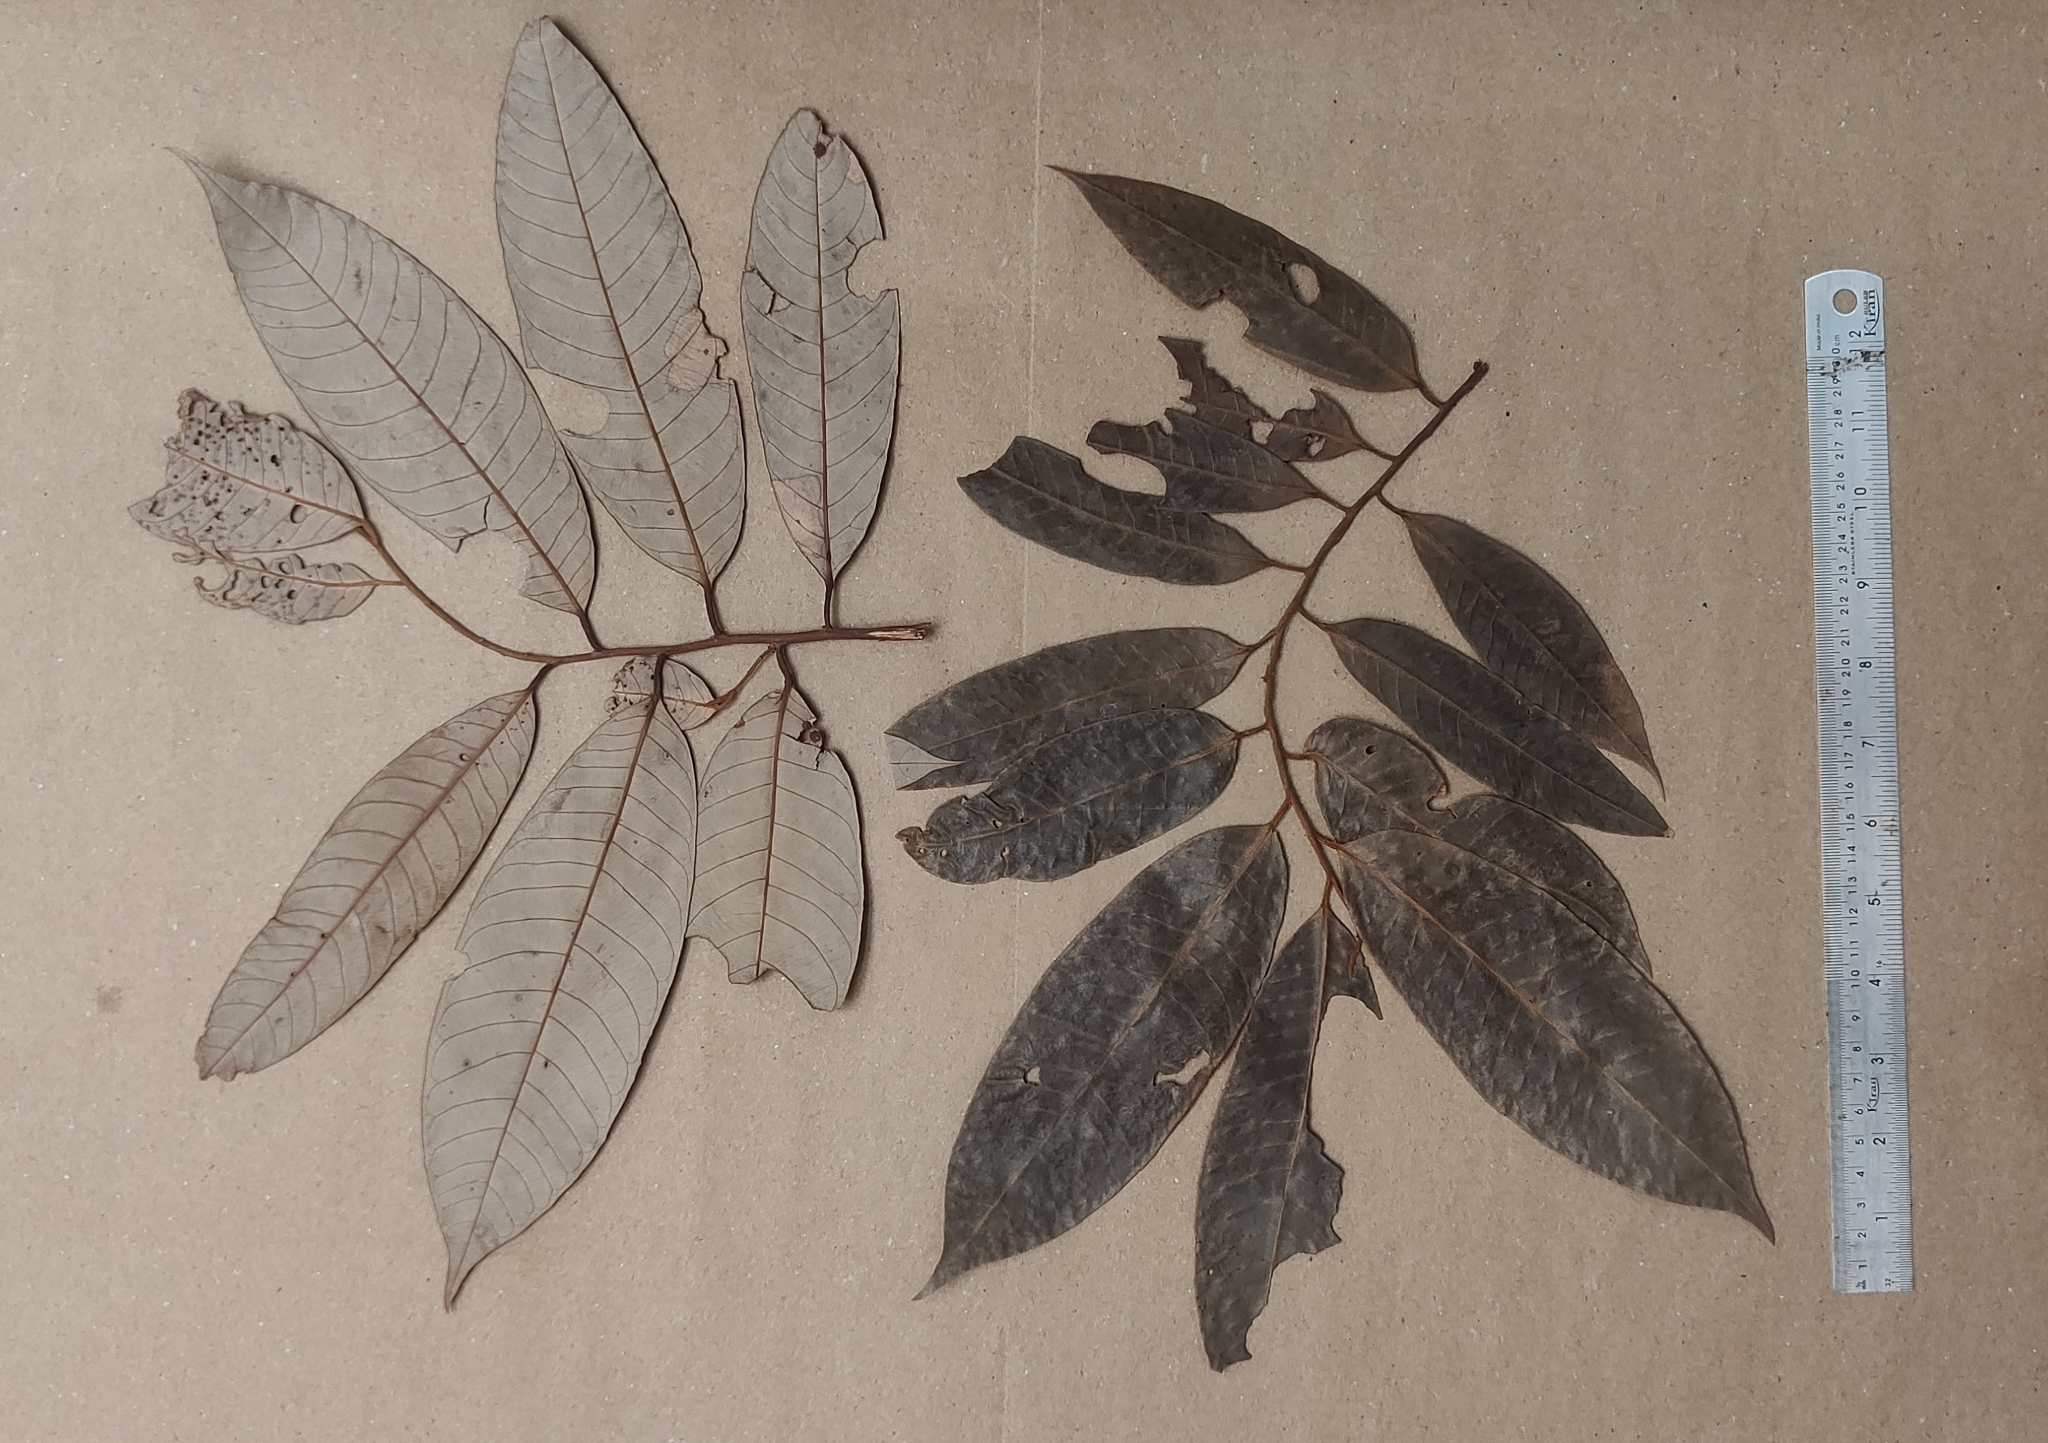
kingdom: Plantae
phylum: Tracheophyta
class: Magnoliopsida
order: Magnoliales
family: Myristicaceae
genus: Knema
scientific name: Knema attenuata
